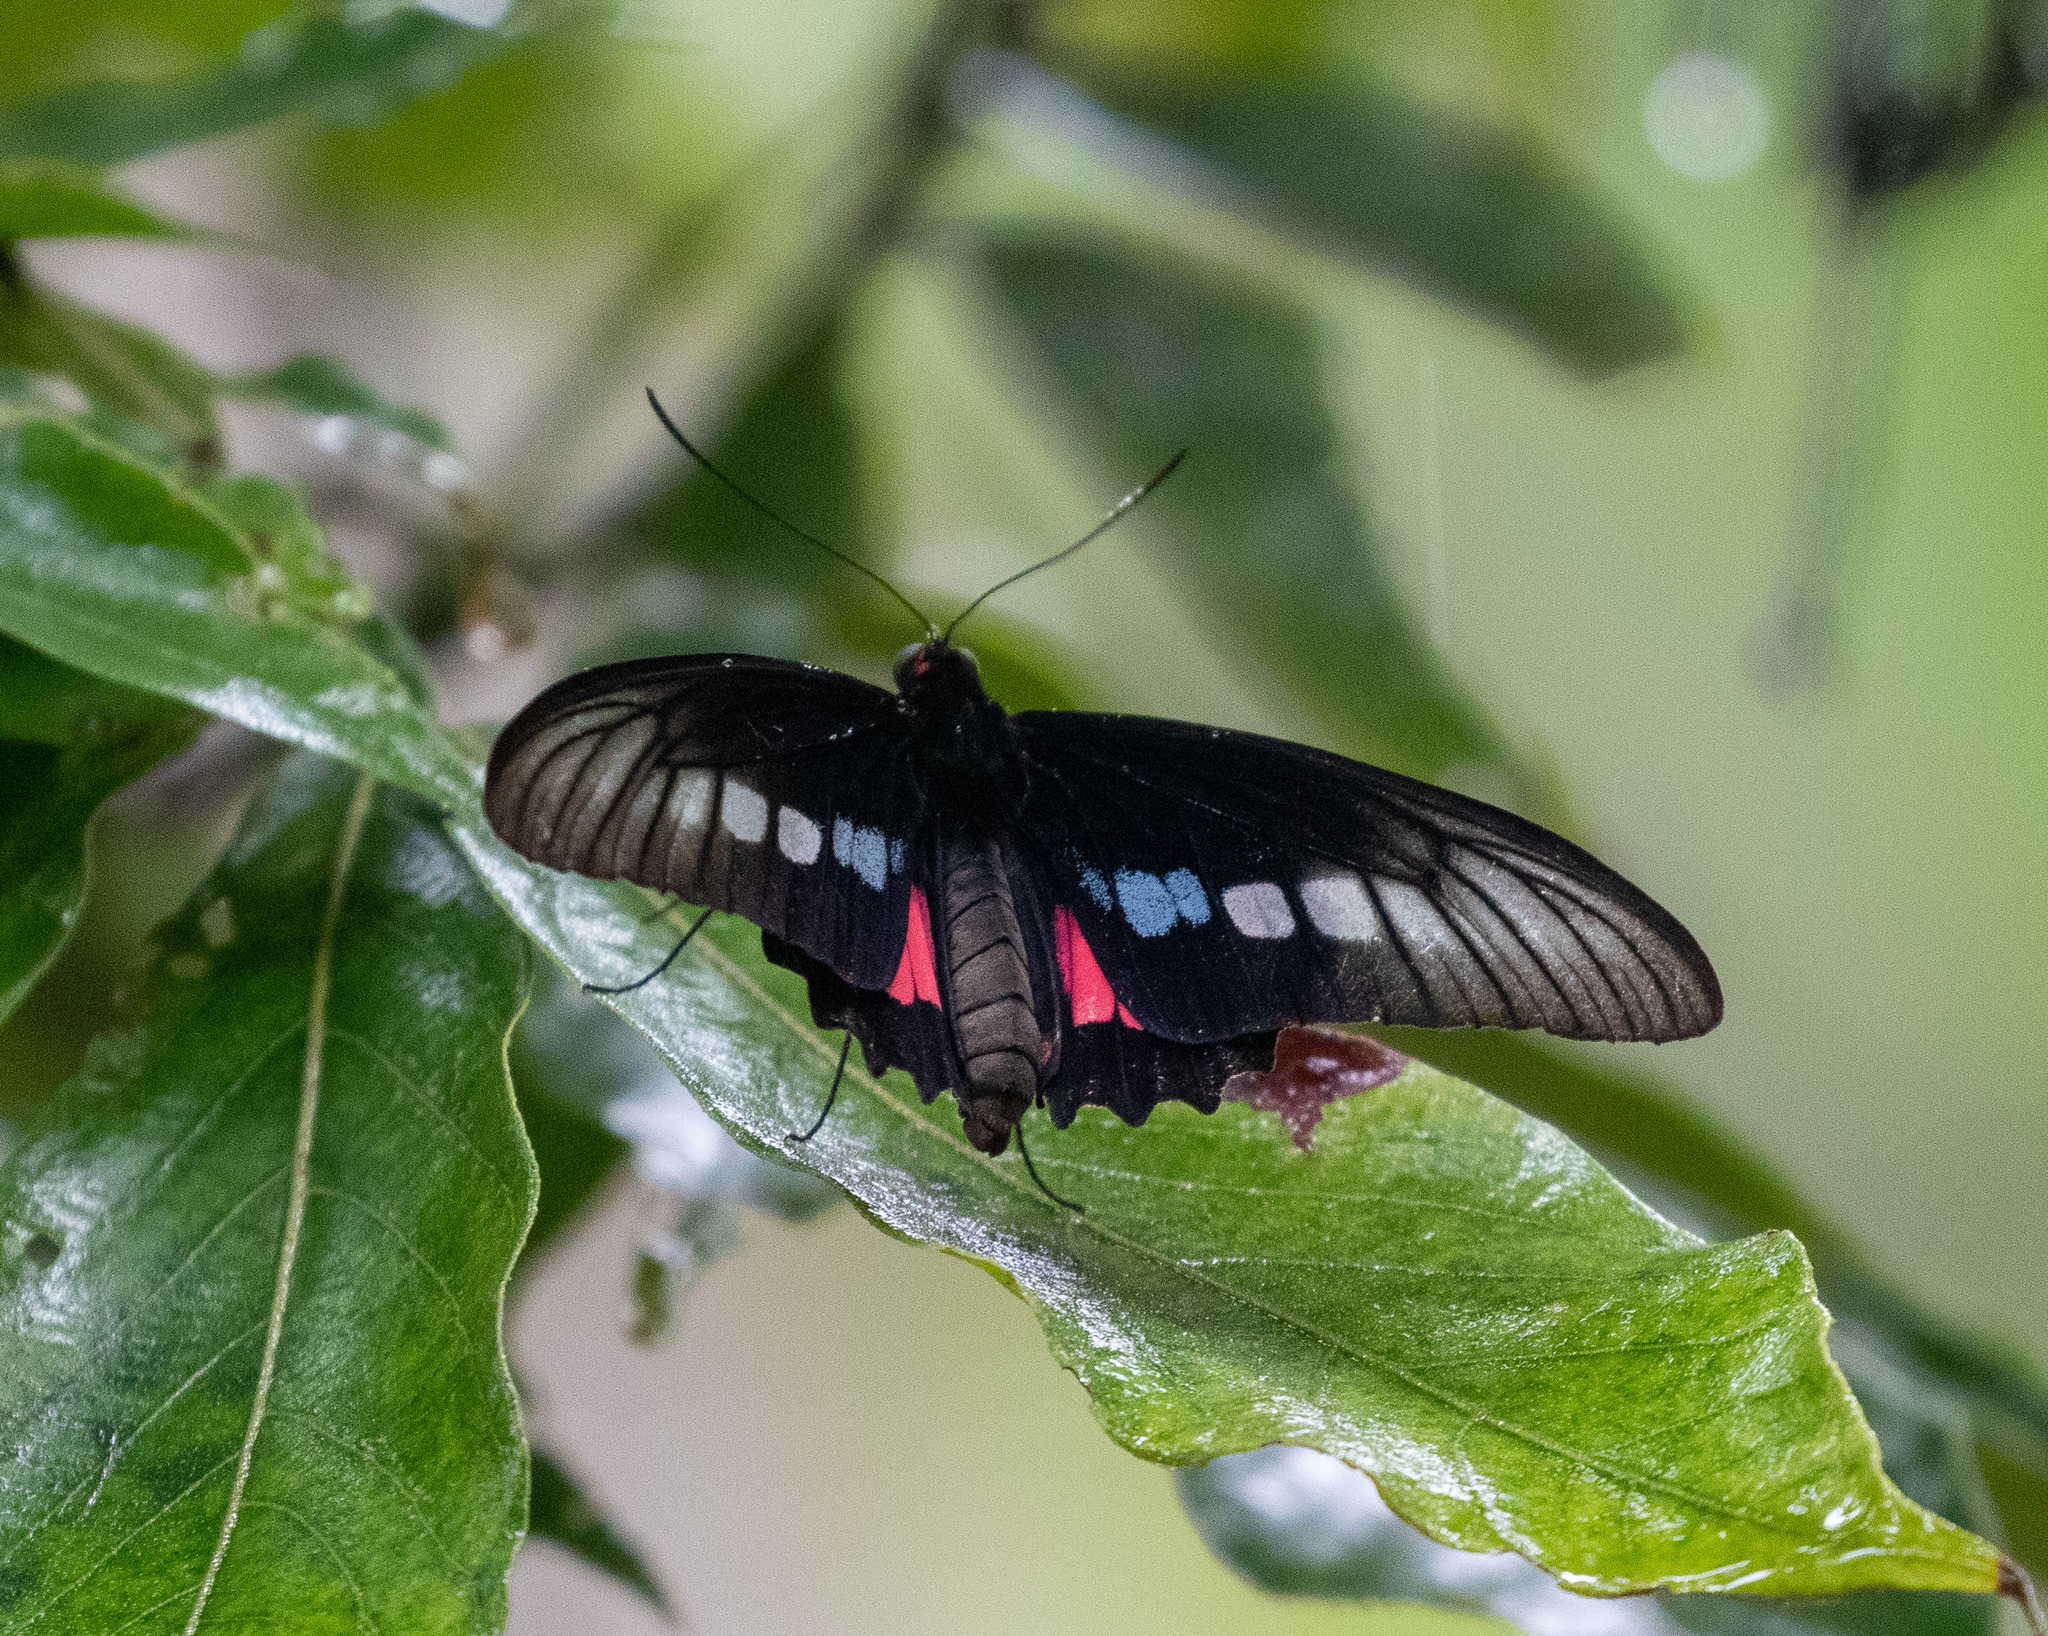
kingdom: Animalia
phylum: Arthropoda
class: Insecta
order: Lepidoptera
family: Papilionidae
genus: Parides
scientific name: Parides zacynthus
